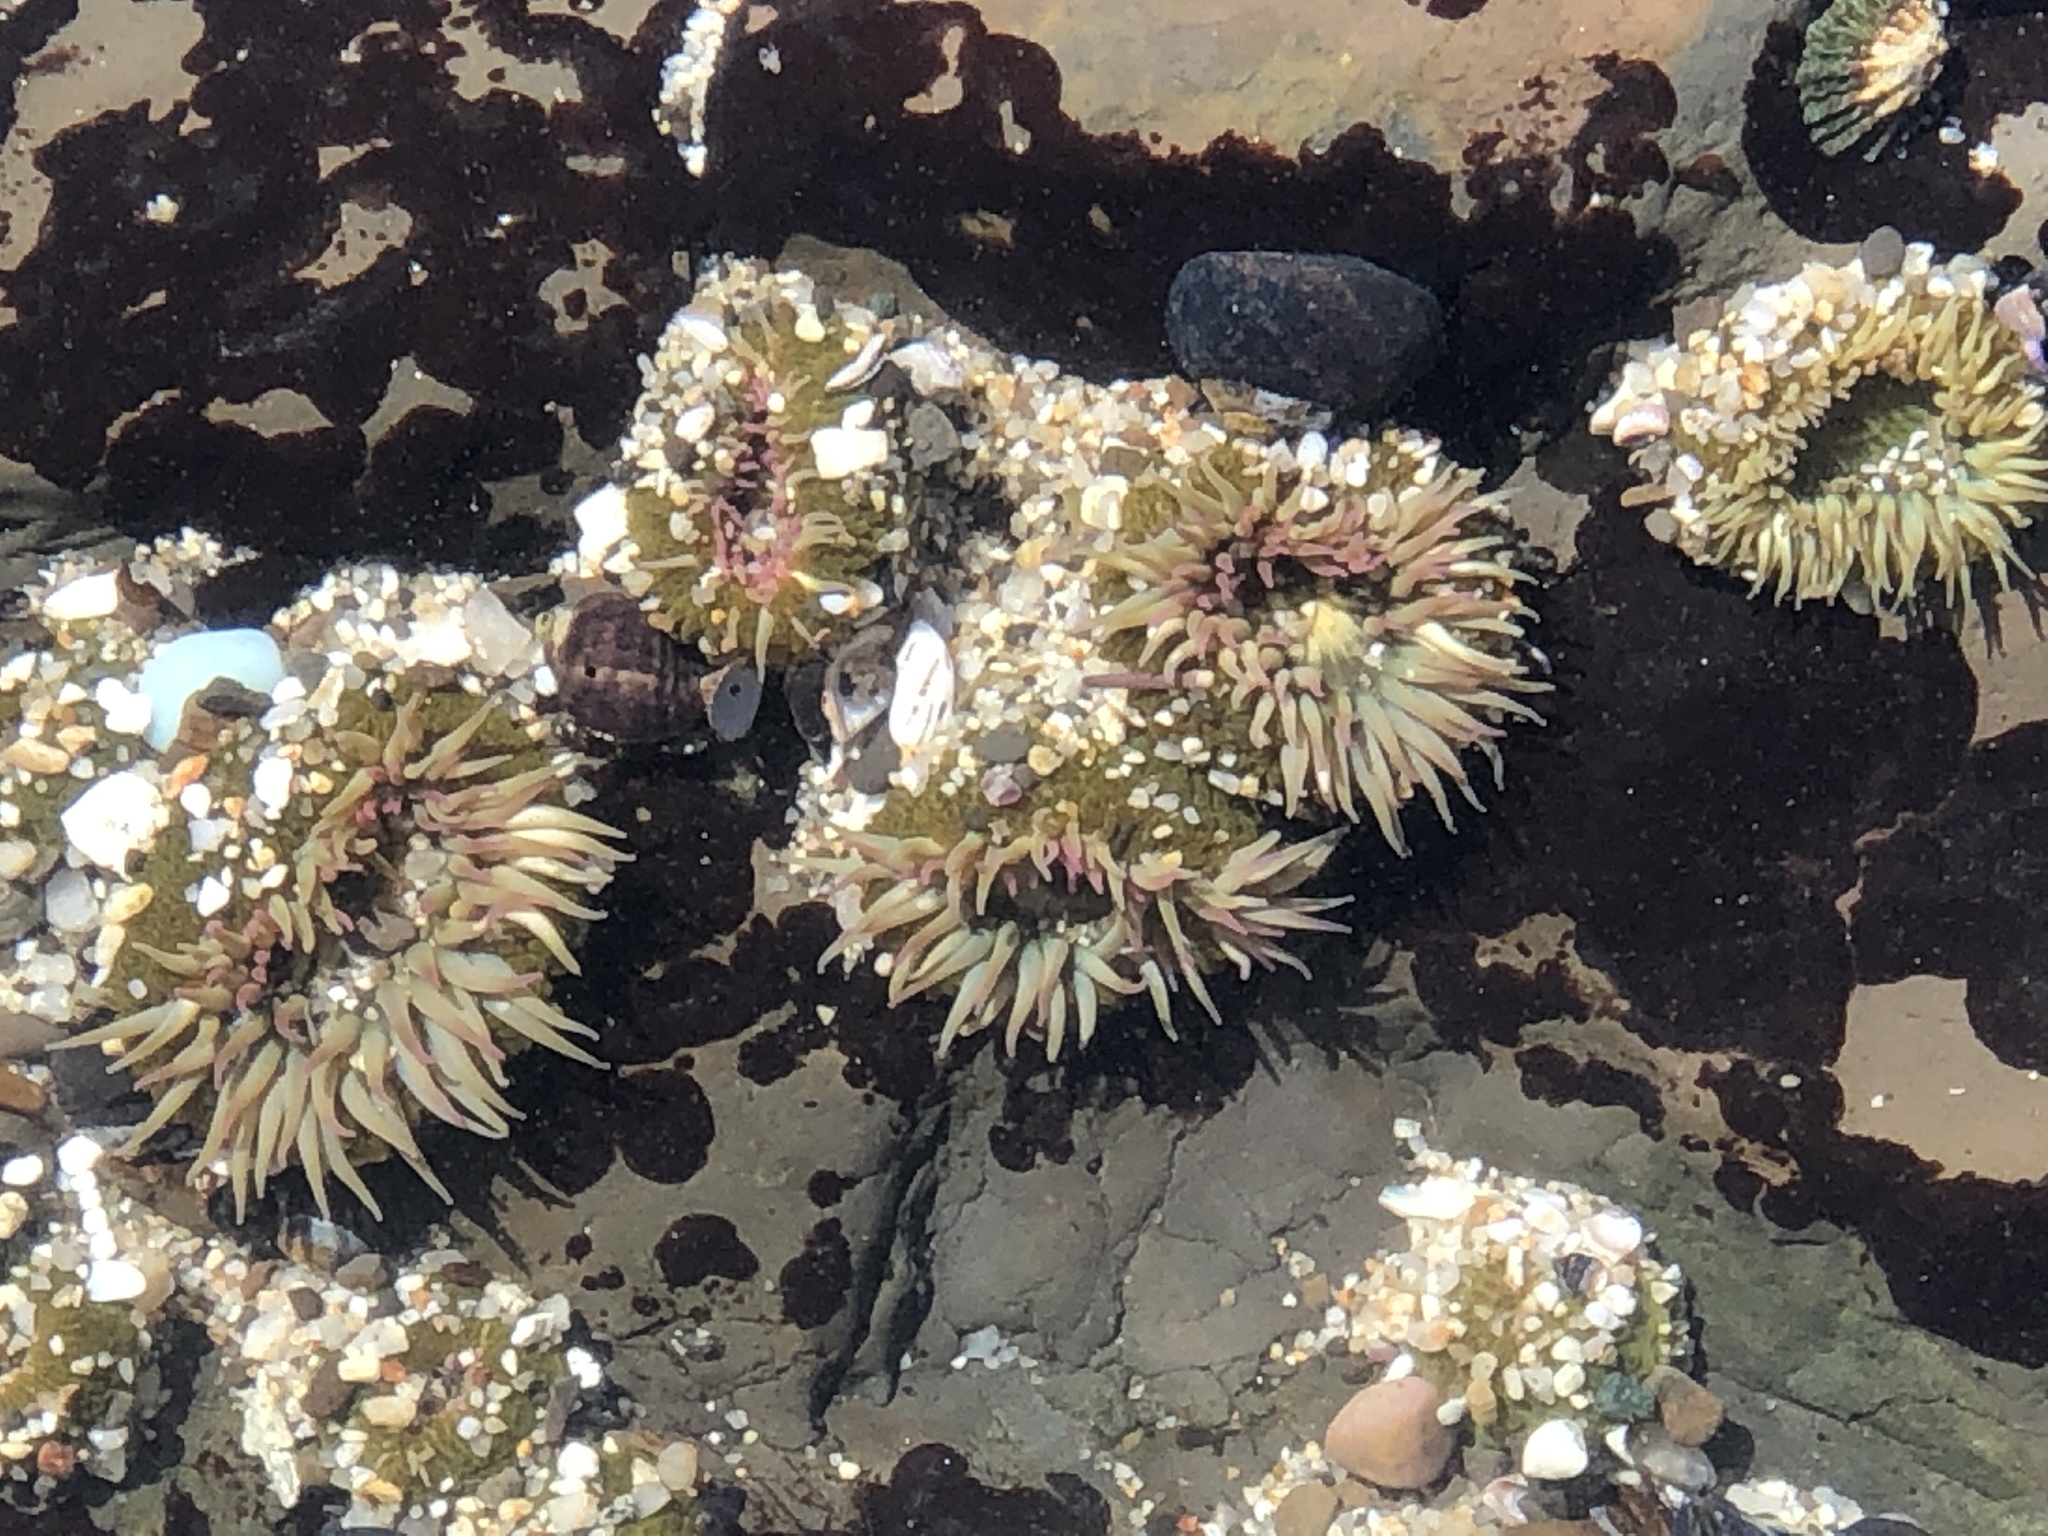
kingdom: Animalia
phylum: Cnidaria
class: Anthozoa
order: Actiniaria
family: Actiniidae
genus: Anthopleura
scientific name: Anthopleura elegantissima
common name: Clonal anemone
